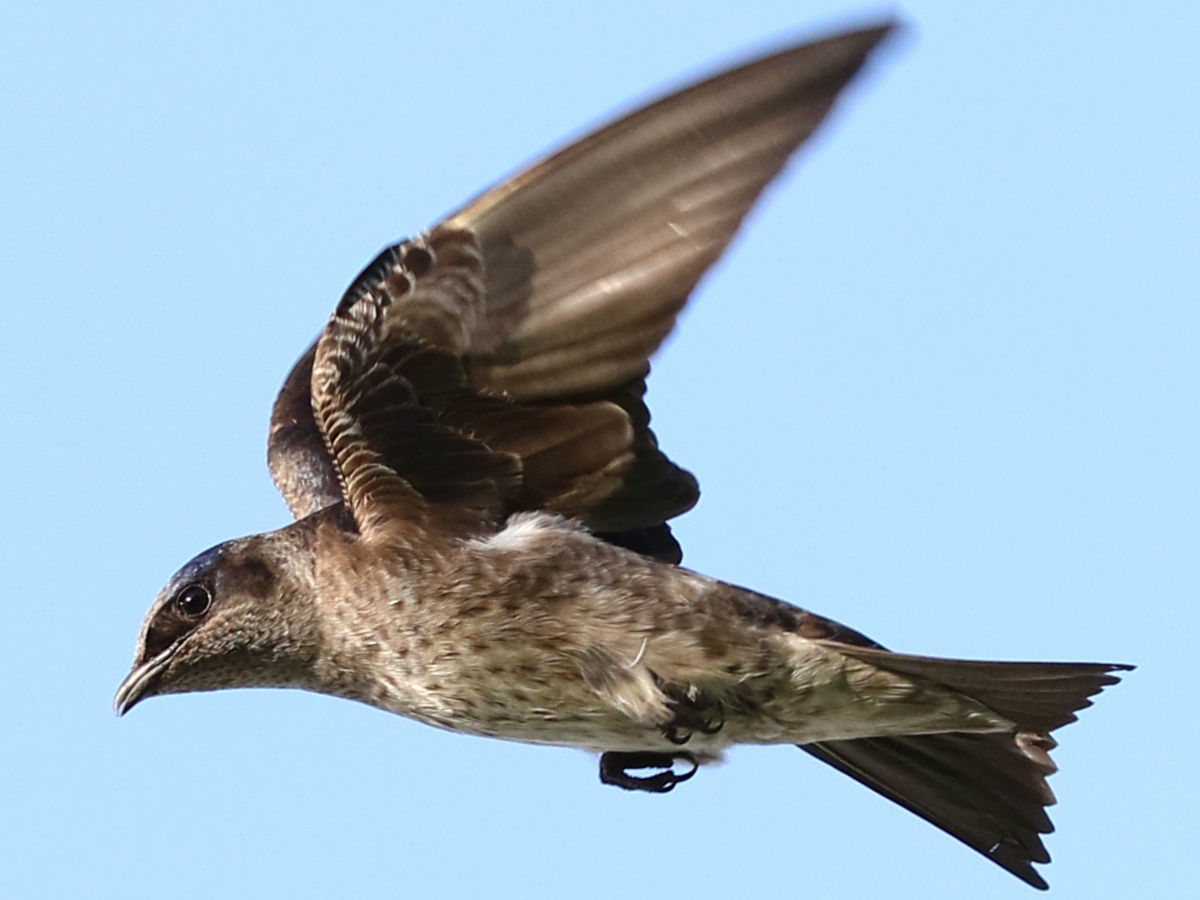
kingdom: Animalia
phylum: Chordata
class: Aves
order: Passeriformes
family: Hirundinidae
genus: Progne
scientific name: Progne subis
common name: Purple martin
